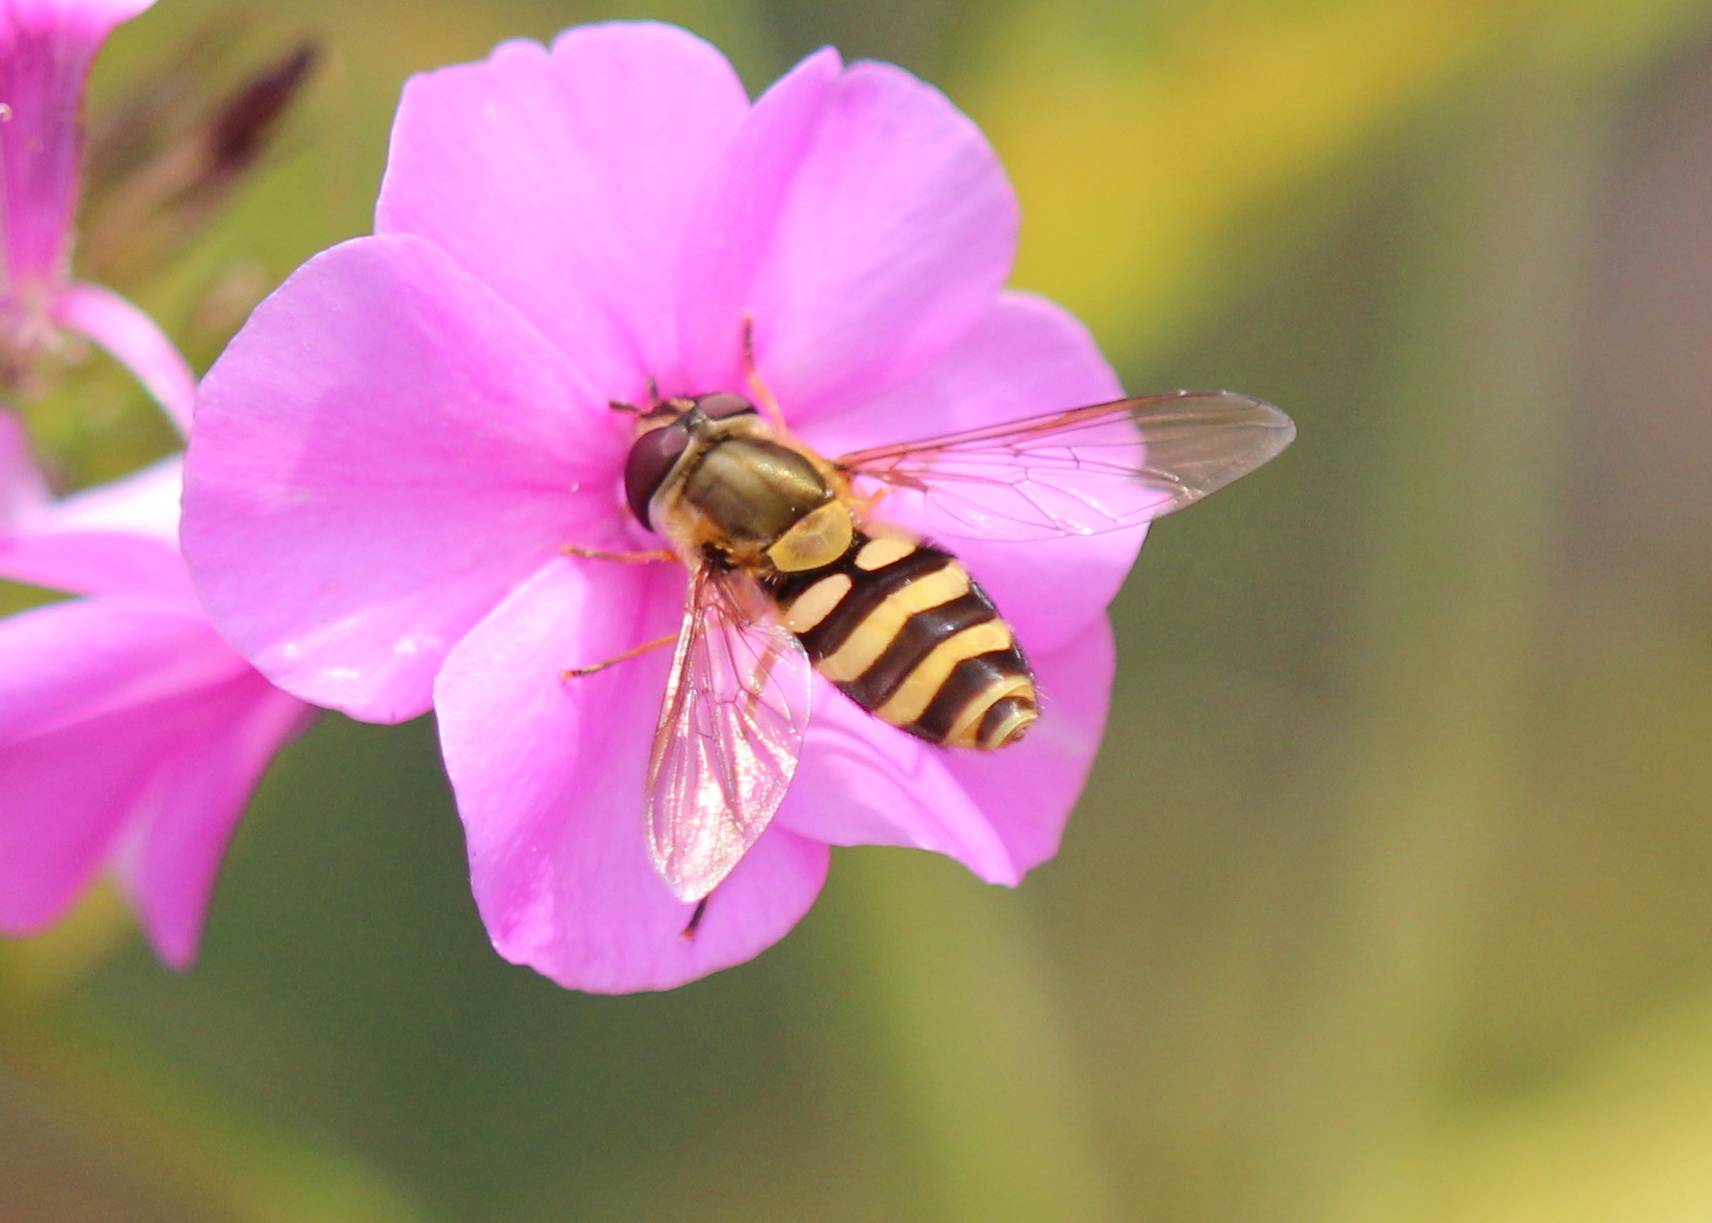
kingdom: Animalia
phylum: Arthropoda
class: Insecta
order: Diptera
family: Syrphidae
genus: Syrphus
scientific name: Syrphus ribesii
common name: Common flower fly
